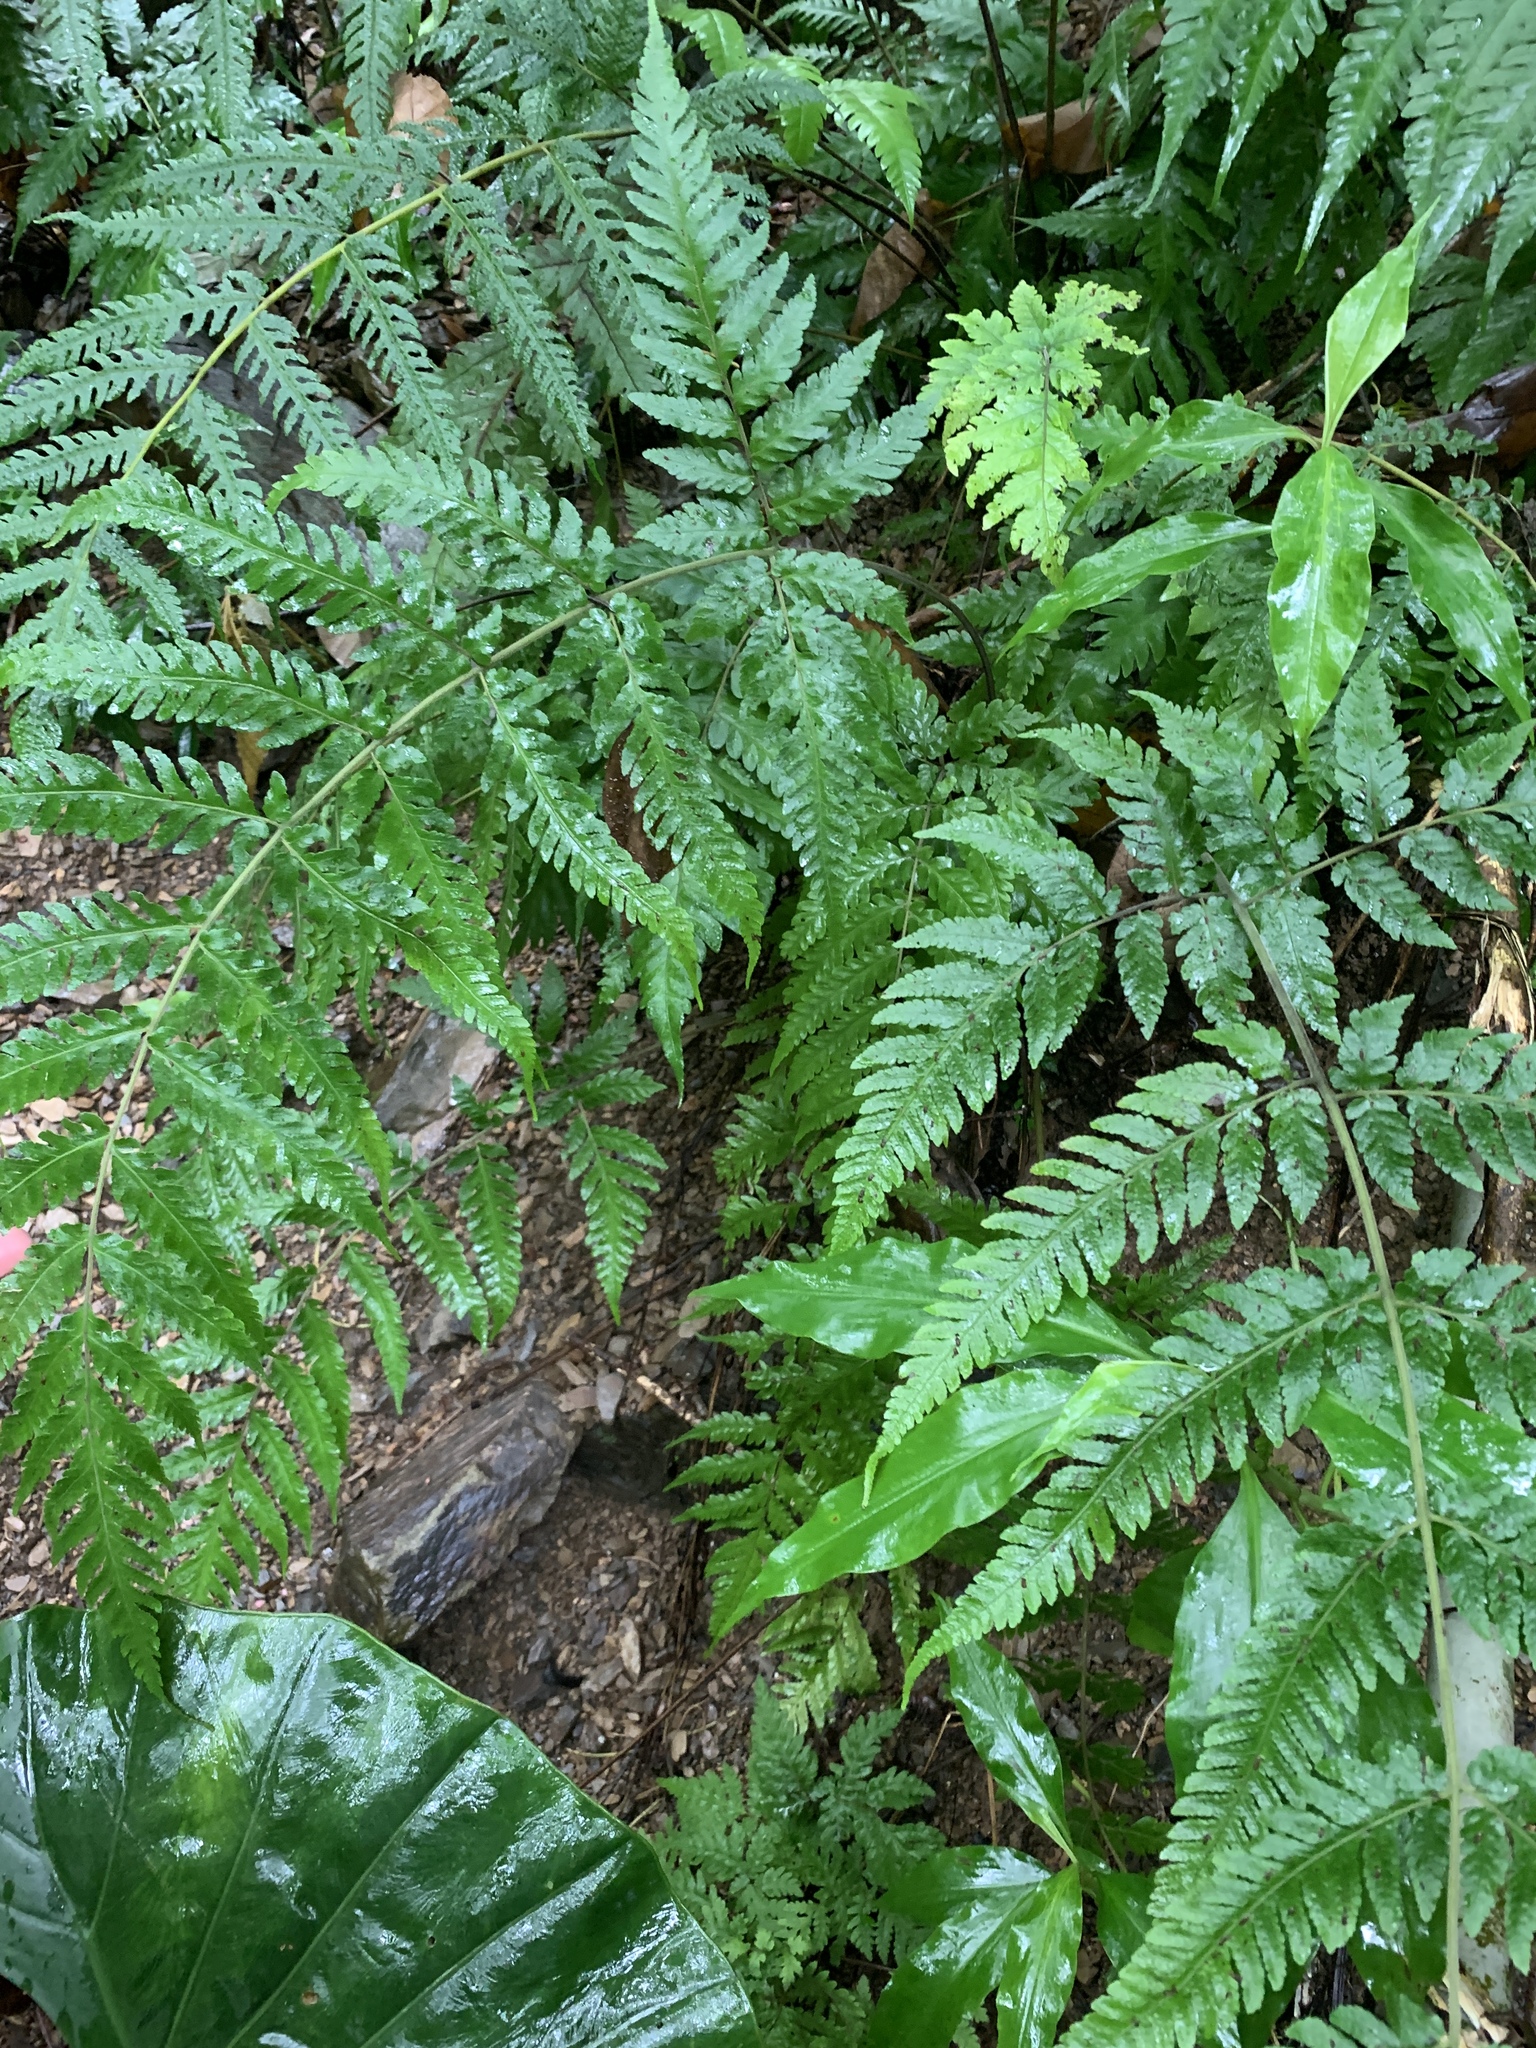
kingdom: Plantae
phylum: Tracheophyta
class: Polypodiopsida
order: Polypodiales
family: Tectariaceae
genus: Tectaria
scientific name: Tectaria dissecta
